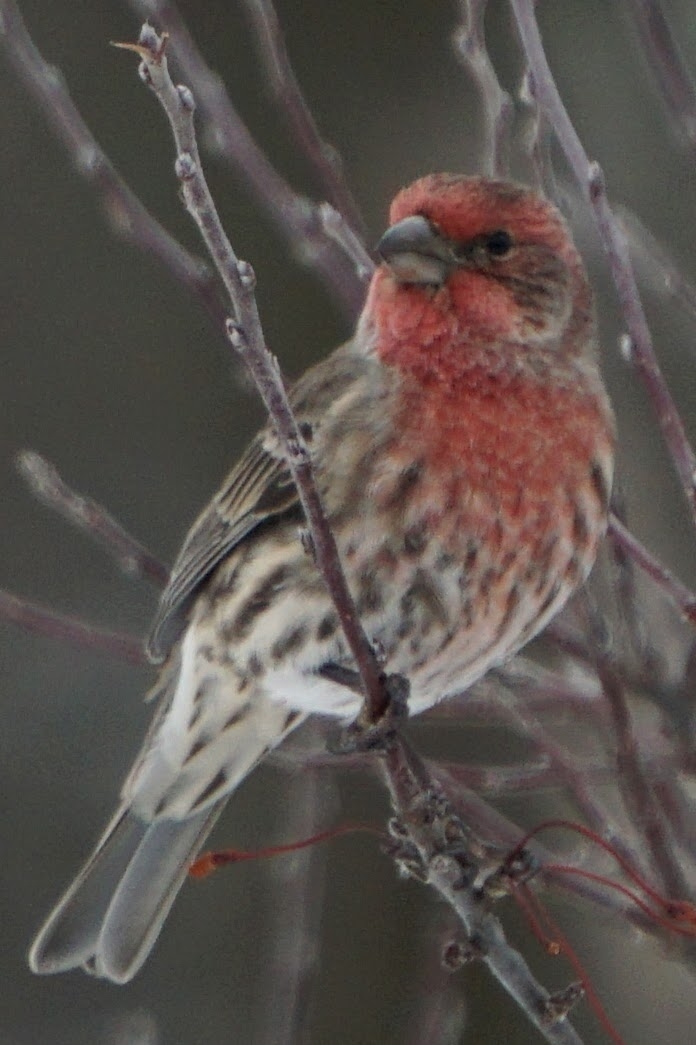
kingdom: Animalia
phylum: Chordata
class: Aves
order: Passeriformes
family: Fringillidae
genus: Haemorhous
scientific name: Haemorhous mexicanus
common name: House finch
